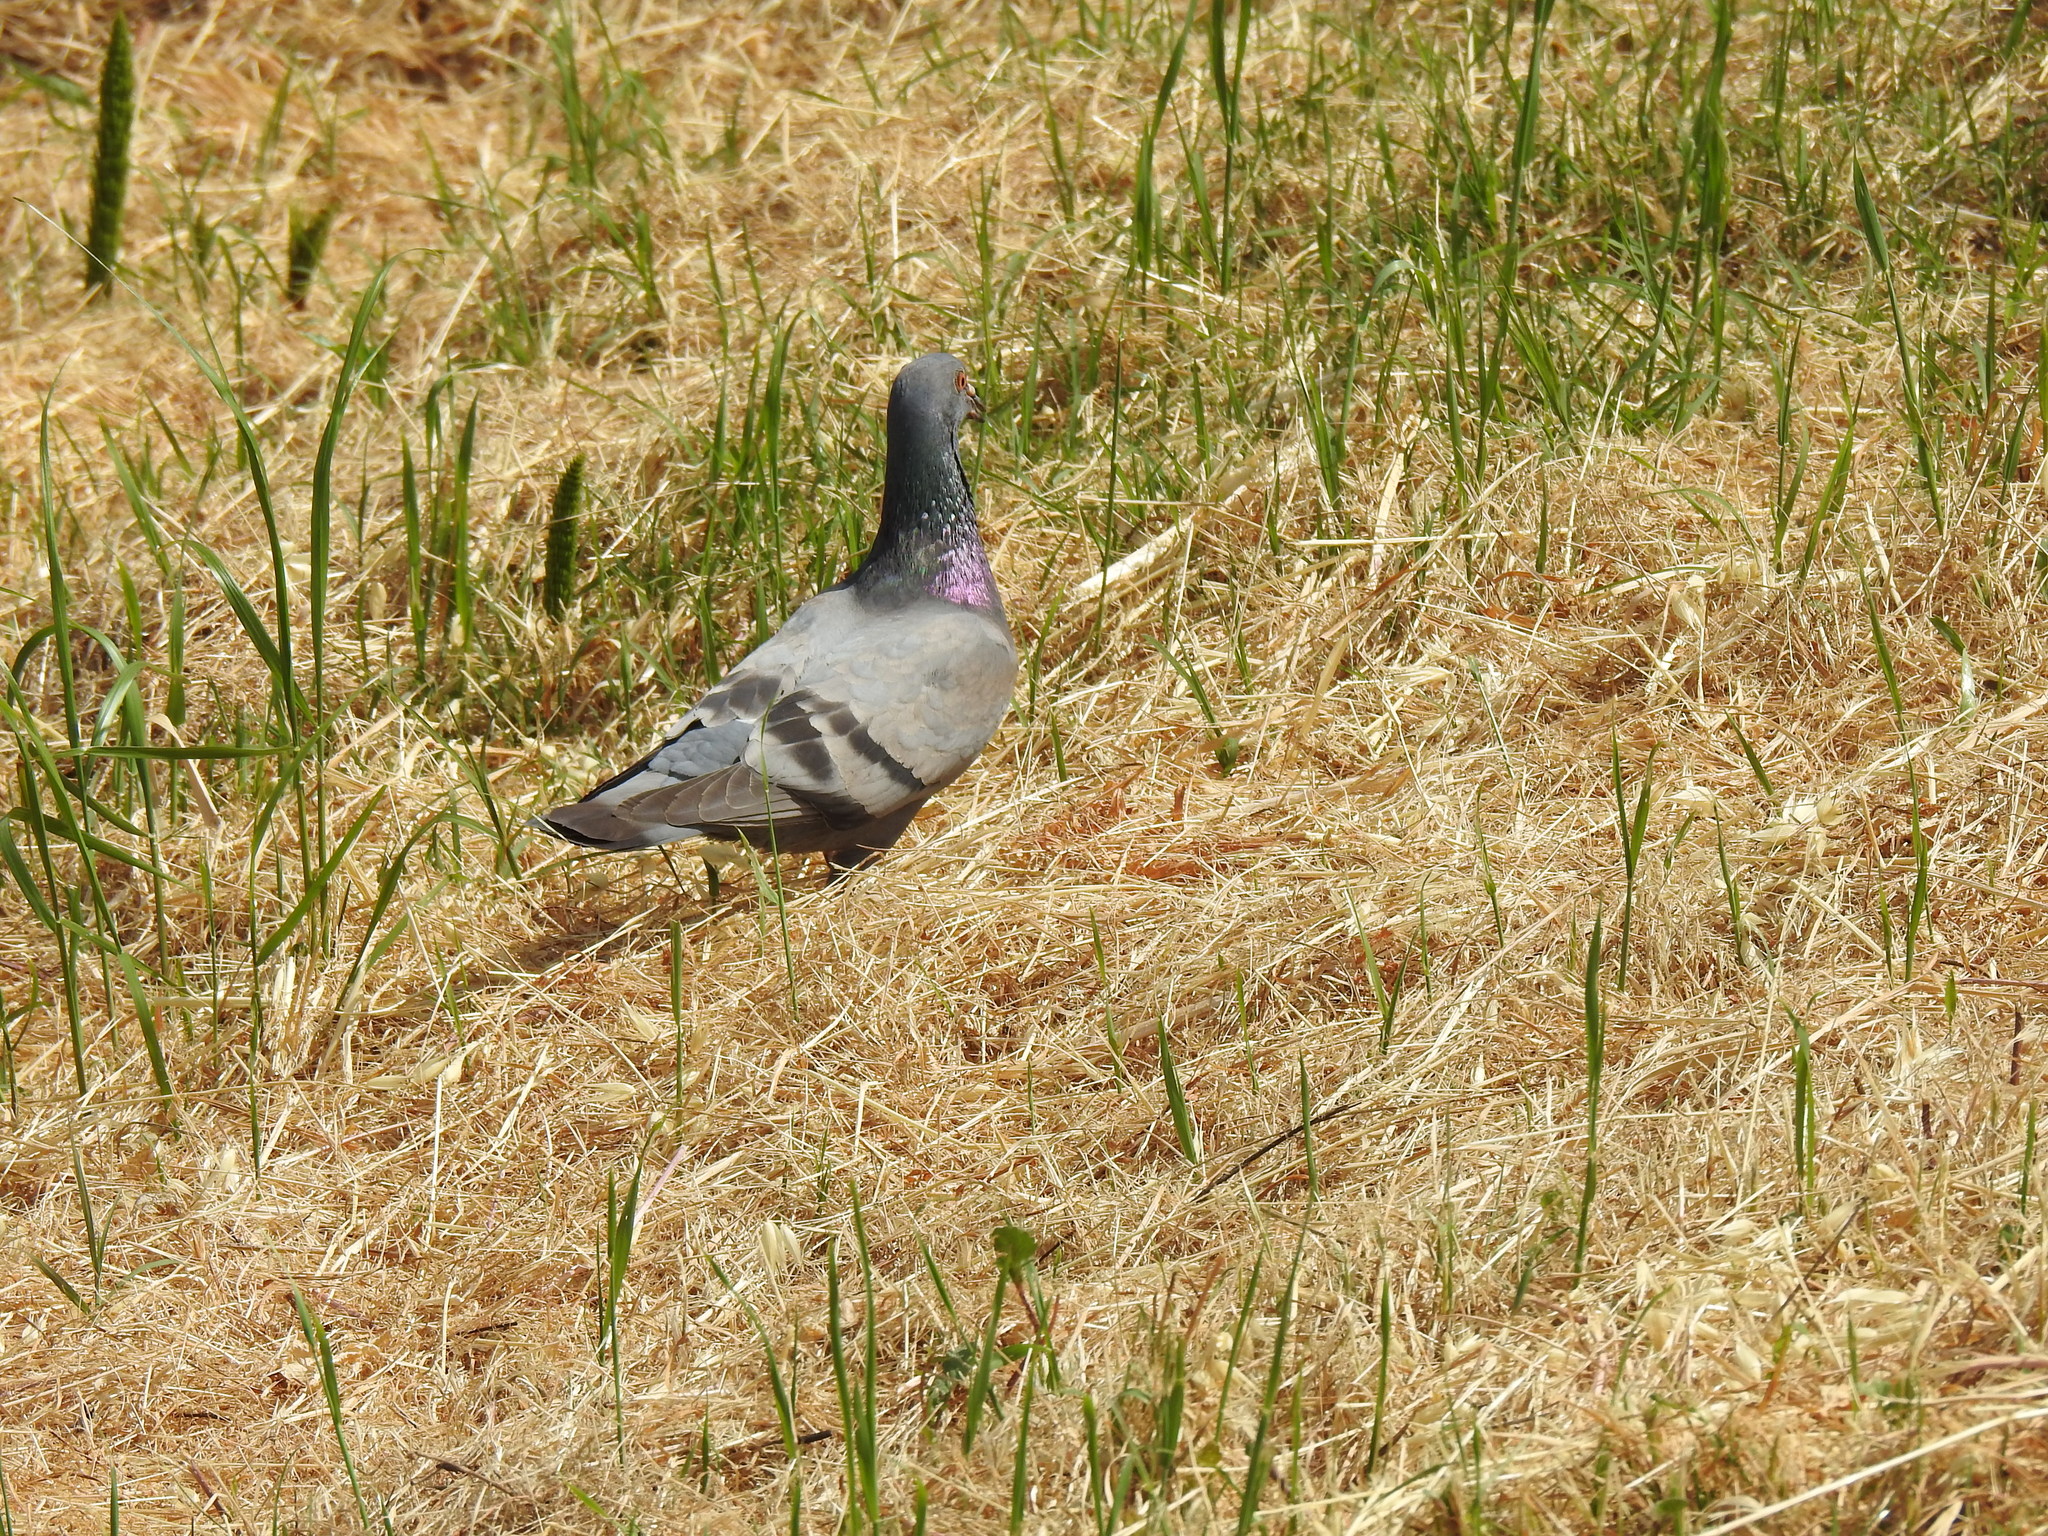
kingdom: Animalia
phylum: Chordata
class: Aves
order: Columbiformes
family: Columbidae
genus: Columba
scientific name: Columba livia
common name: Rock pigeon
